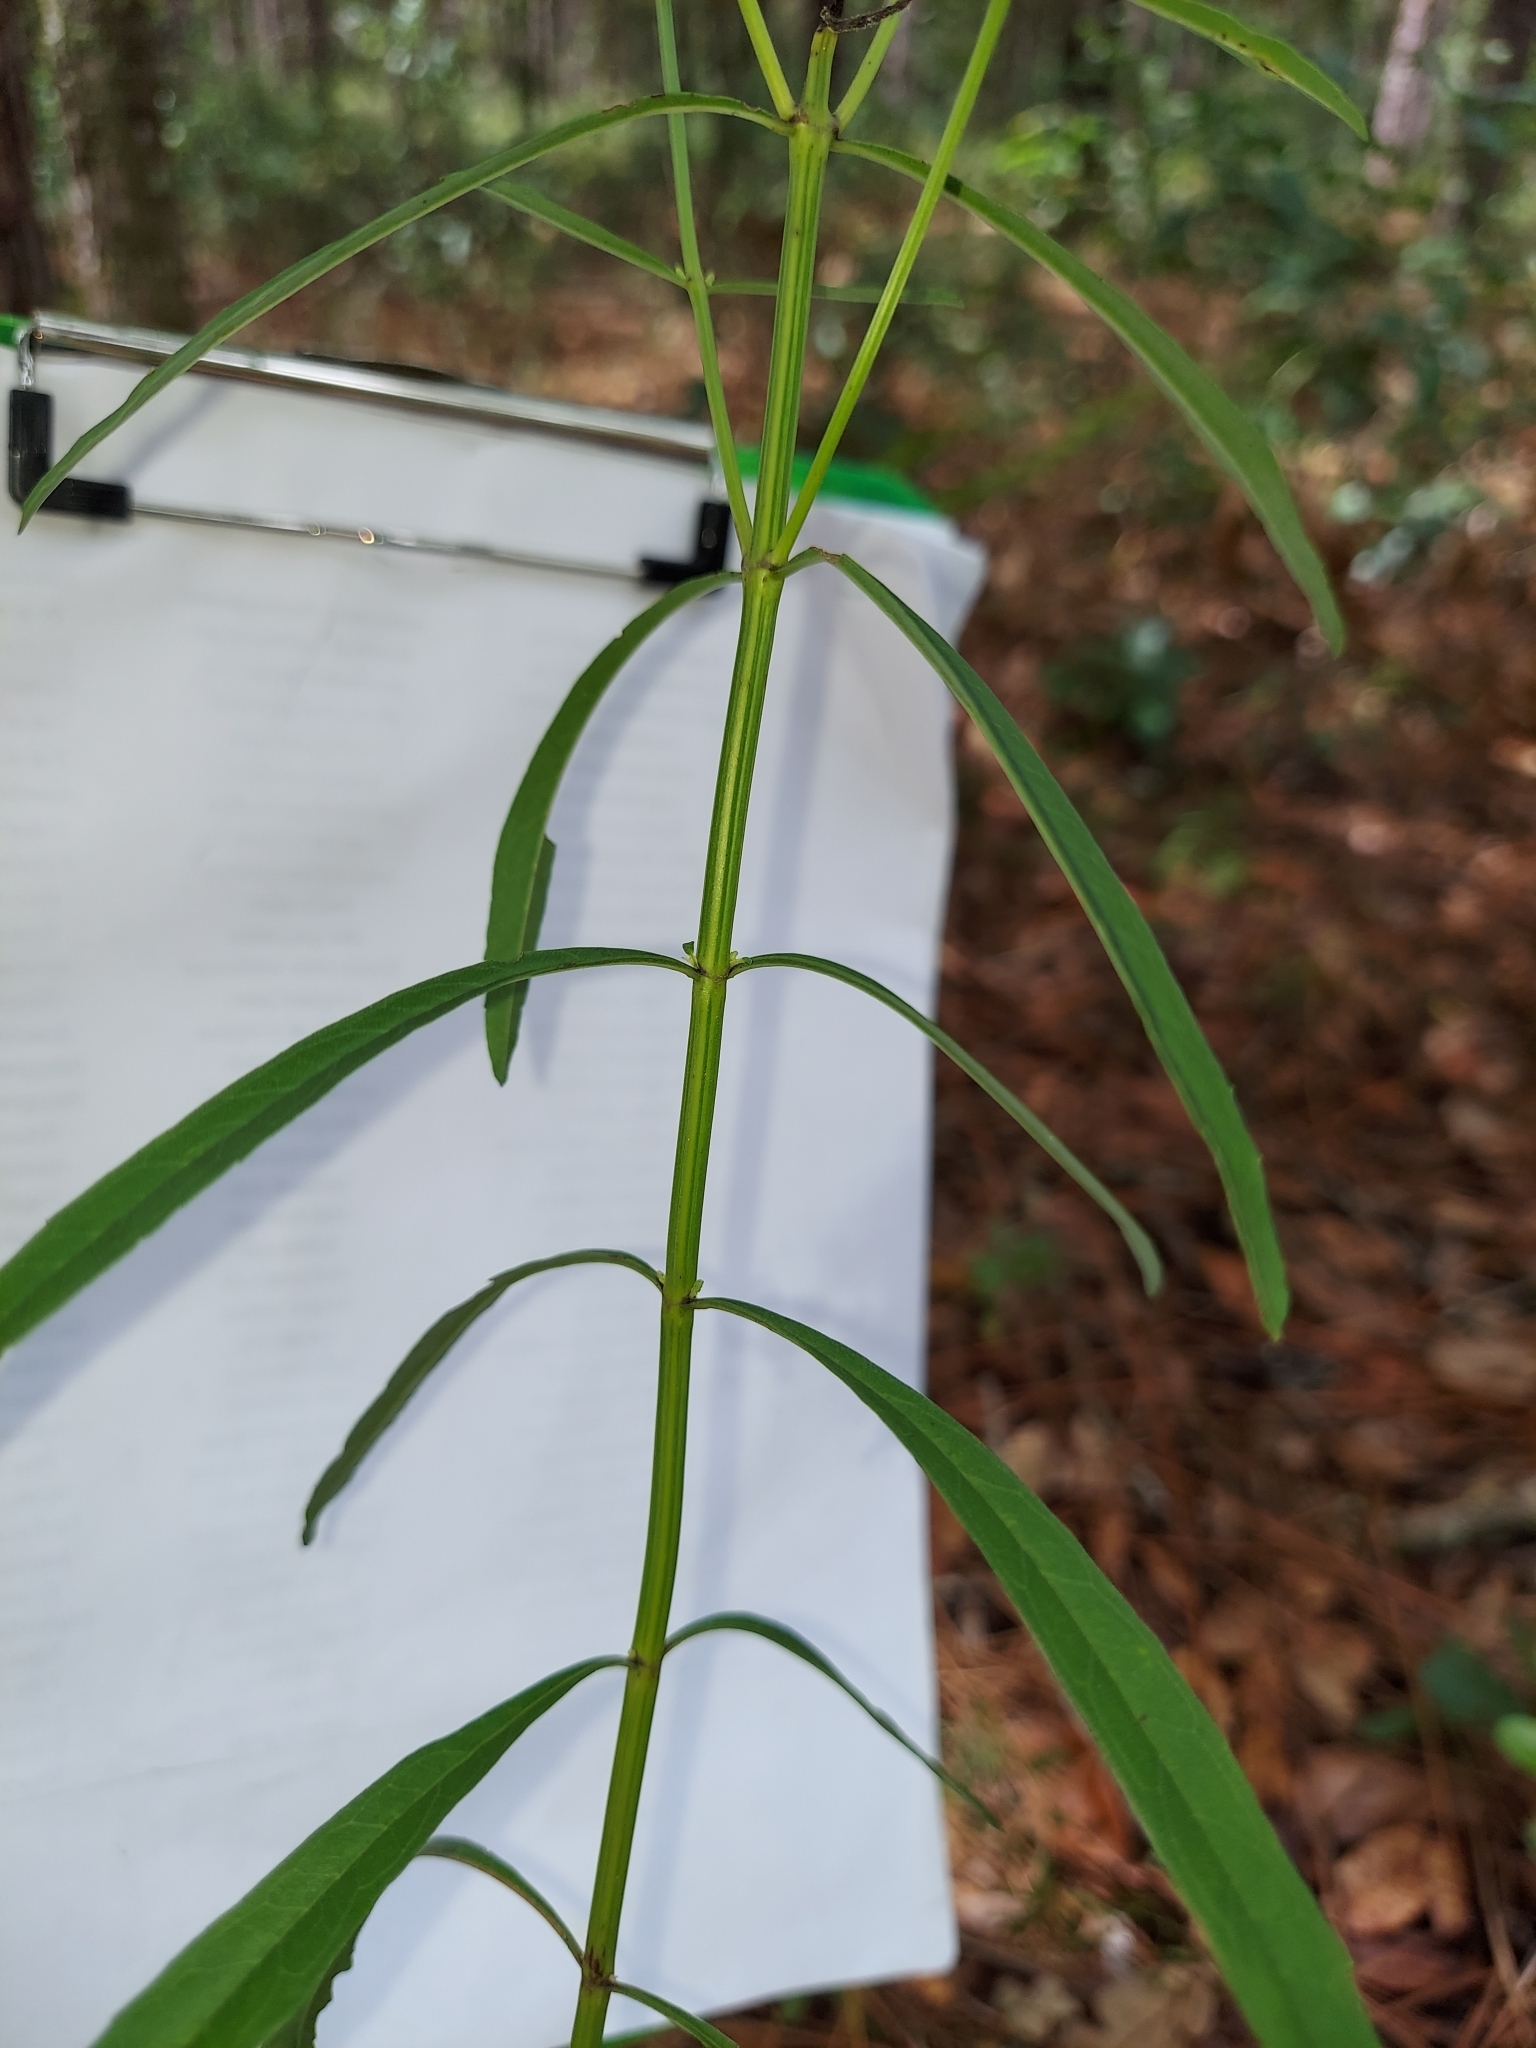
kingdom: Plantae
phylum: Tracheophyta
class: Magnoliopsida
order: Lamiales
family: Lamiaceae
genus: Salvia
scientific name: Salvia azurea
